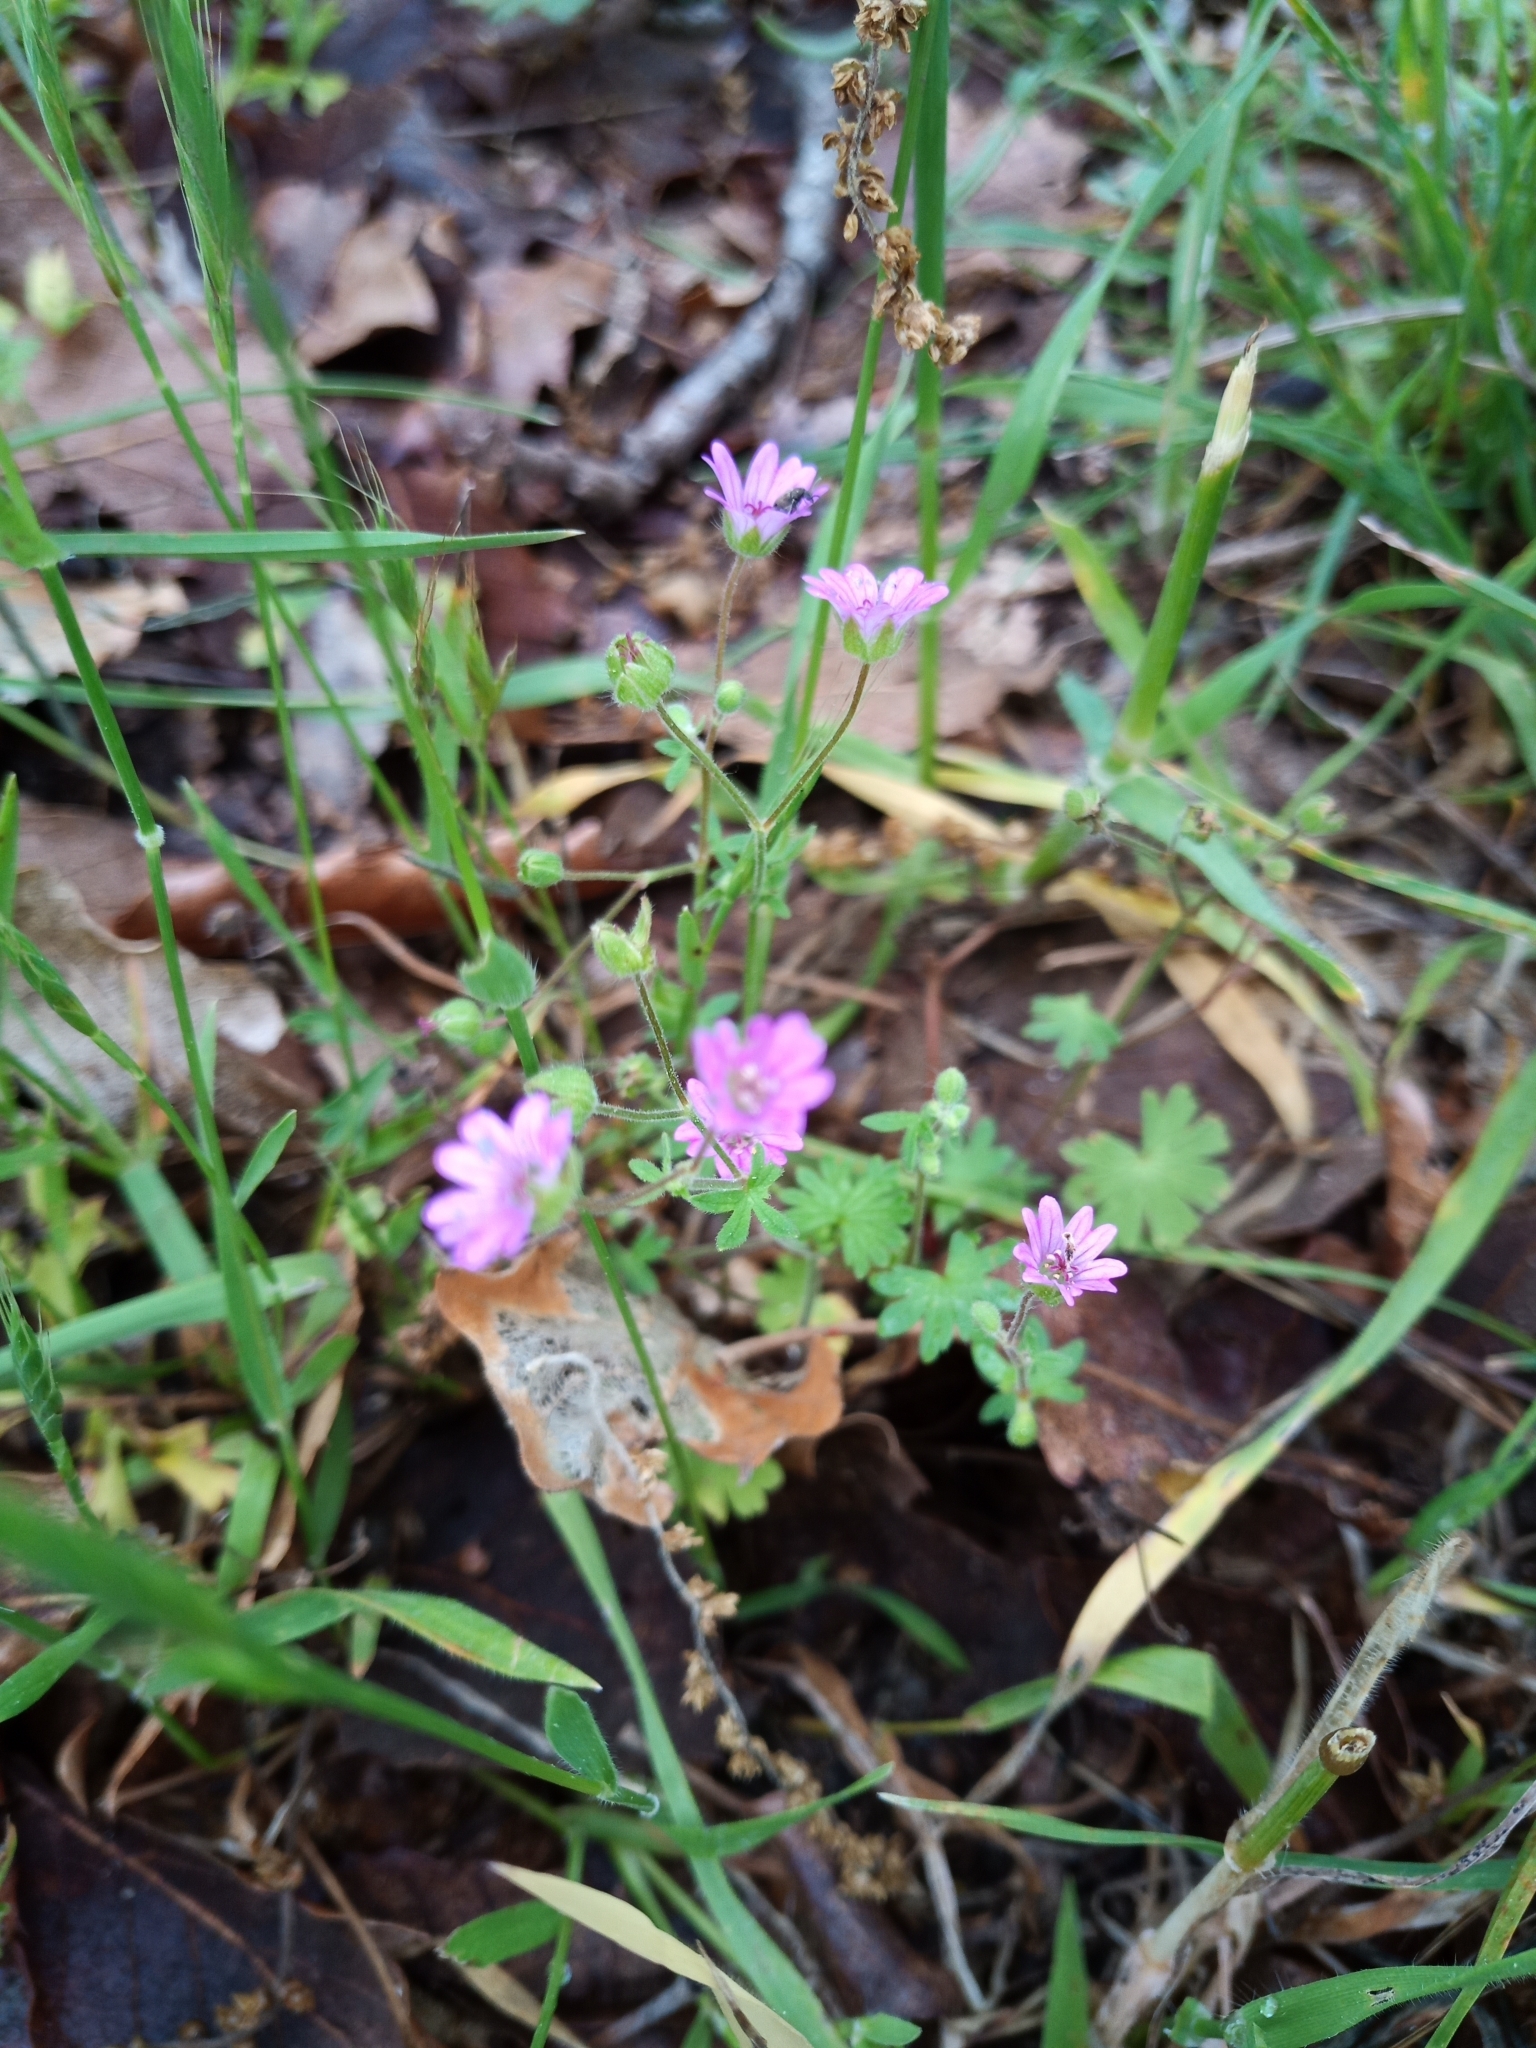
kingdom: Plantae
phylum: Tracheophyta
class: Magnoliopsida
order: Geraniales
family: Geraniaceae
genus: Geranium
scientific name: Geranium molle
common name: Dove's-foot crane's-bill
